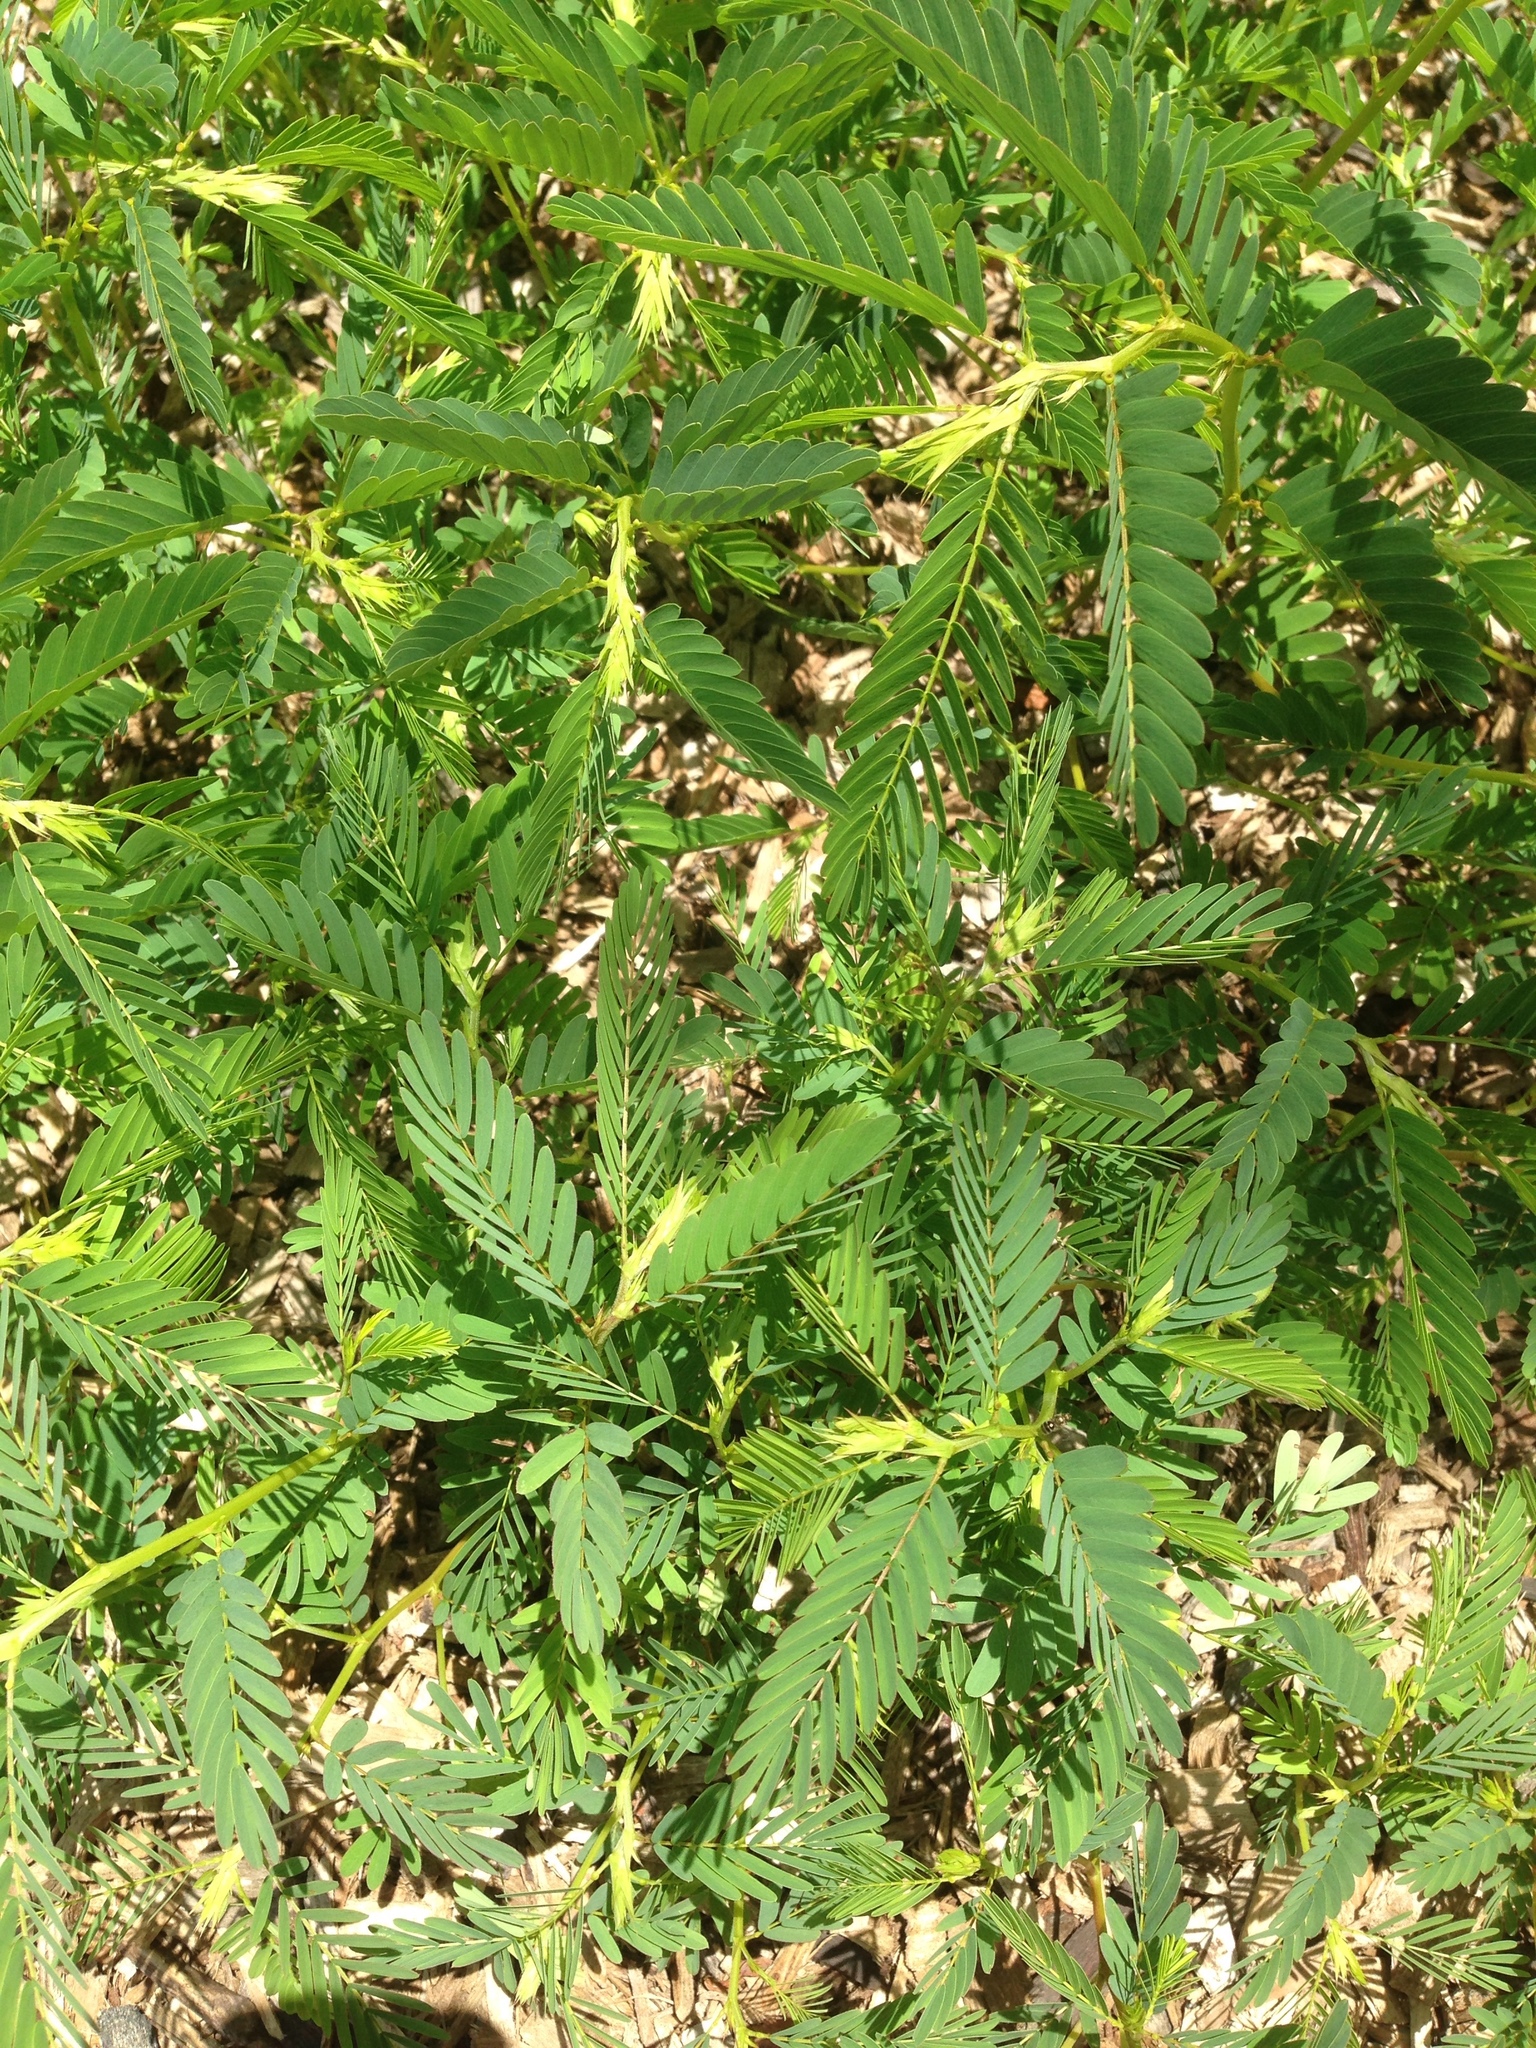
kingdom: Plantae
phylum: Tracheophyta
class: Magnoliopsida
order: Fabales
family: Fabaceae
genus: Chamaecrista
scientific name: Chamaecrista fasciculata
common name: Golden cassia
